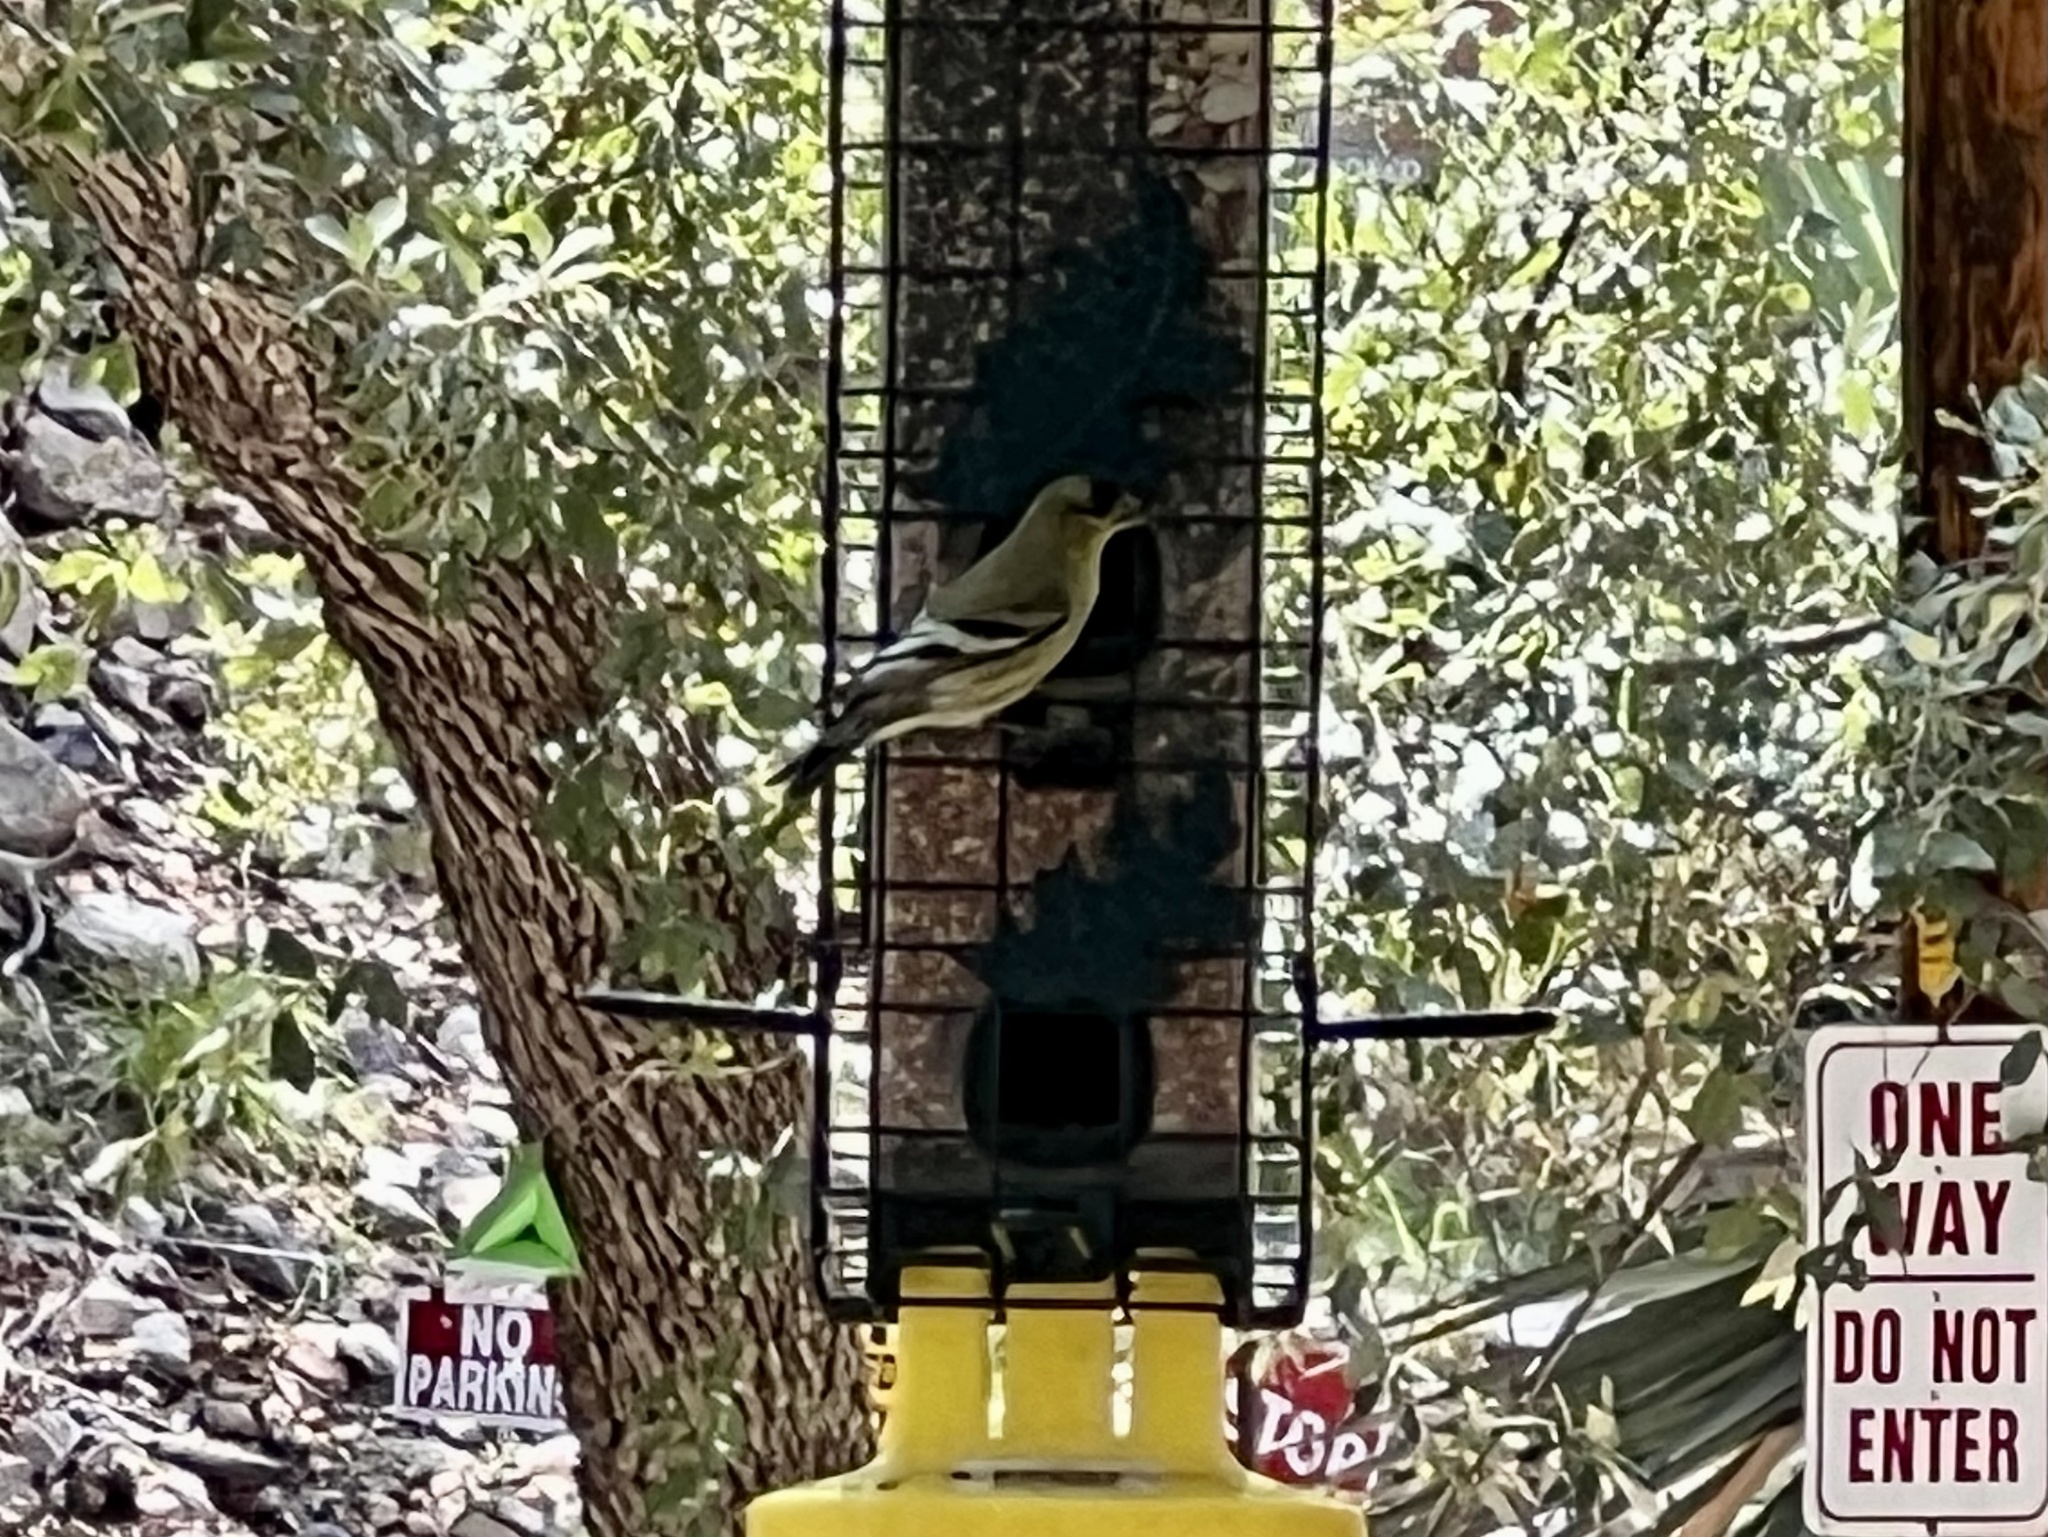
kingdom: Animalia
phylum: Chordata
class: Aves
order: Passeriformes
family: Fringillidae
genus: Spinus
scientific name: Spinus psaltria
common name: Lesser goldfinch
